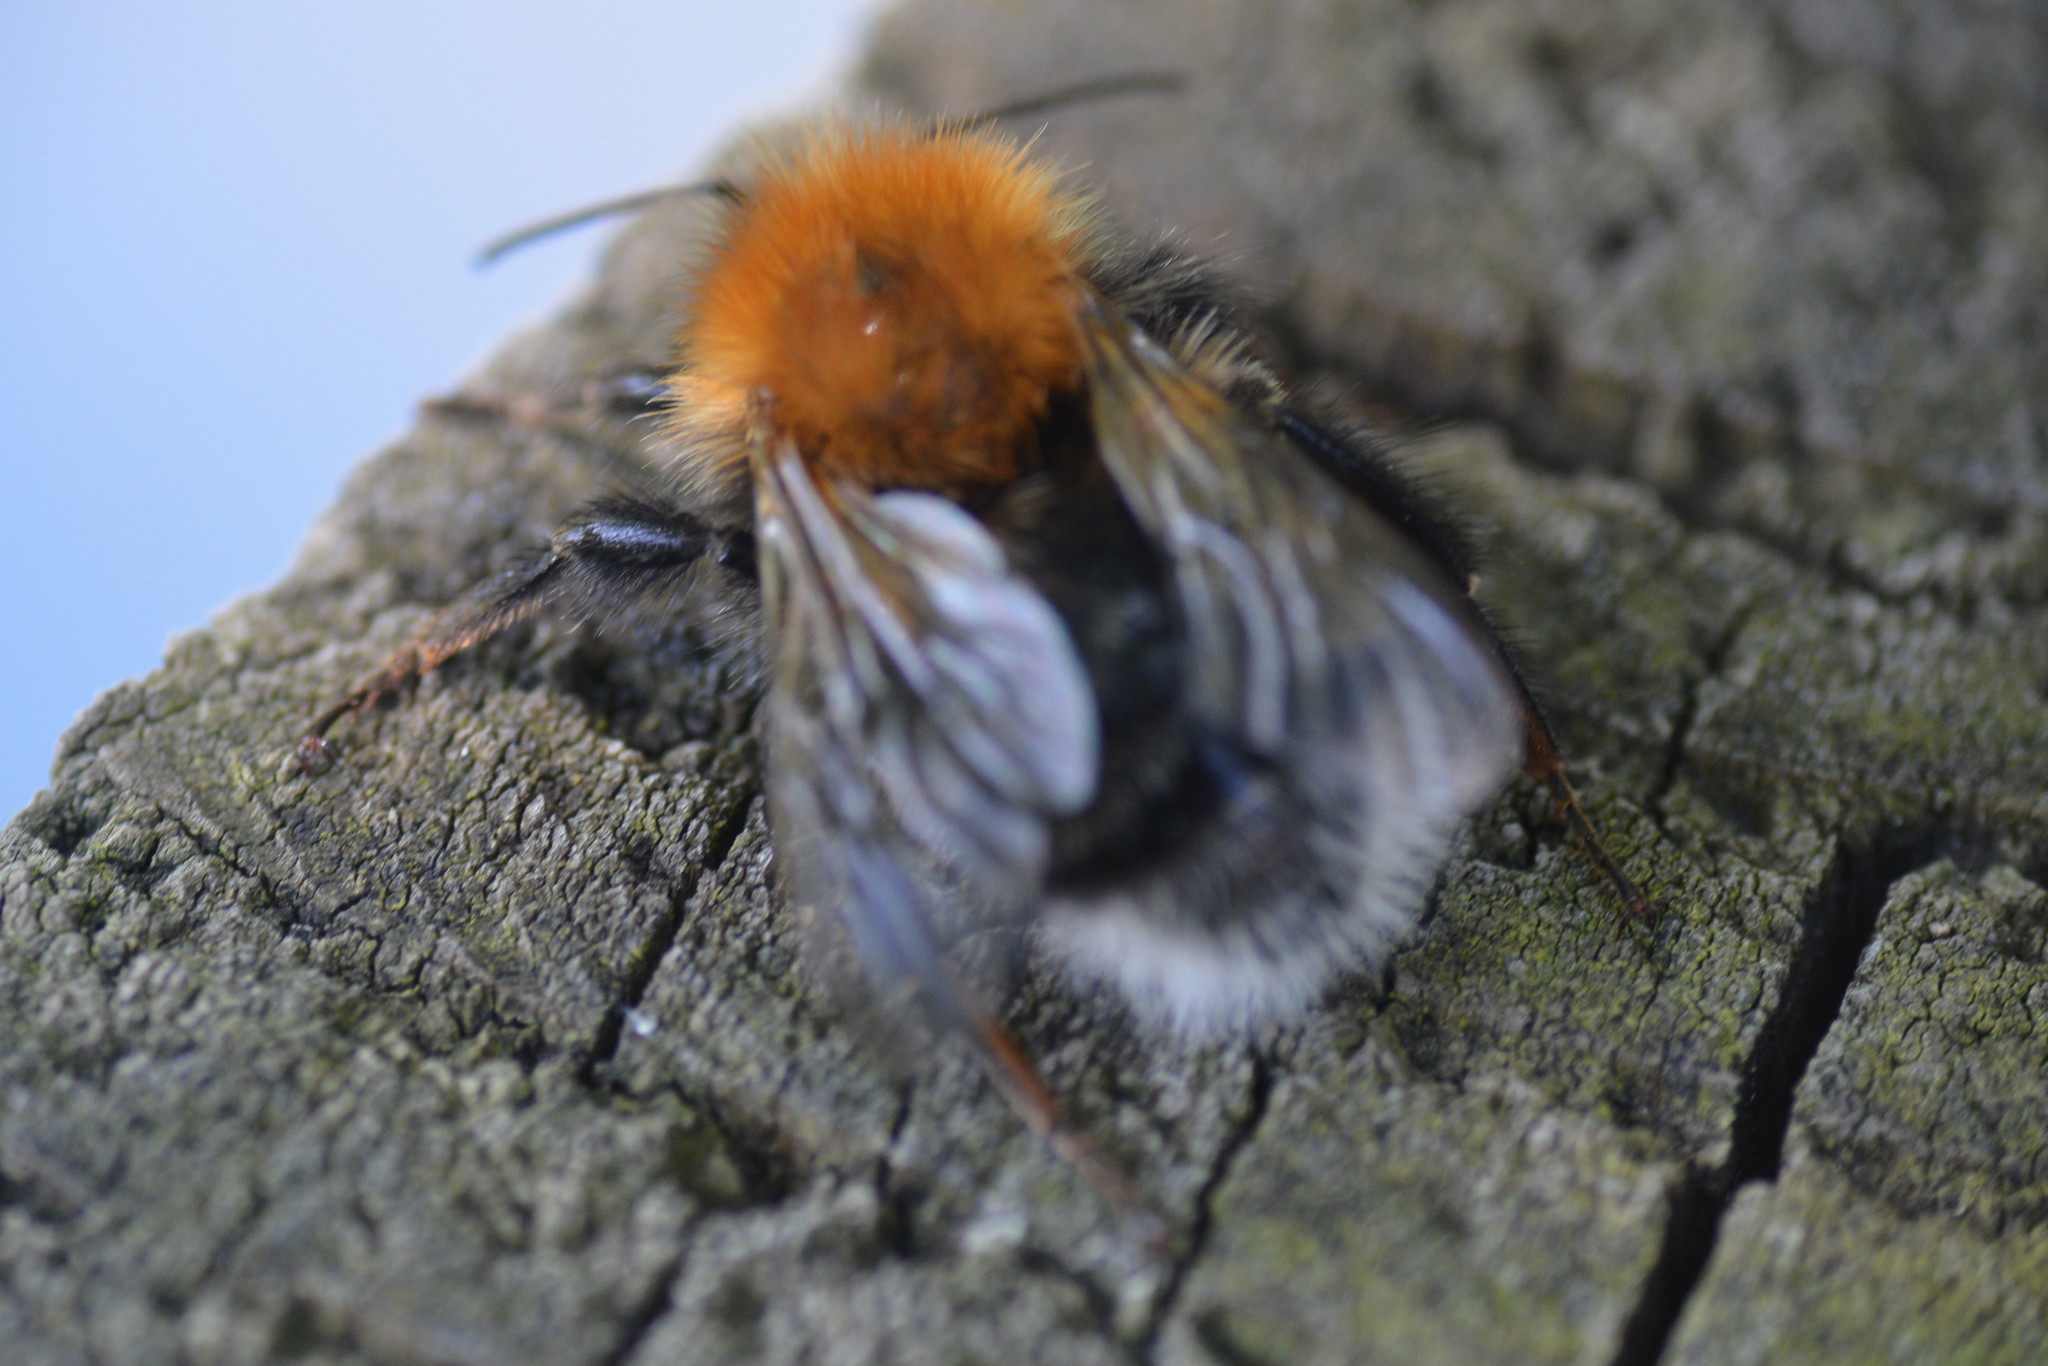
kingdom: Animalia
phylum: Arthropoda
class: Insecta
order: Hymenoptera
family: Apidae
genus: Bombus
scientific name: Bombus hypnorum
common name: New garden bumblebee
